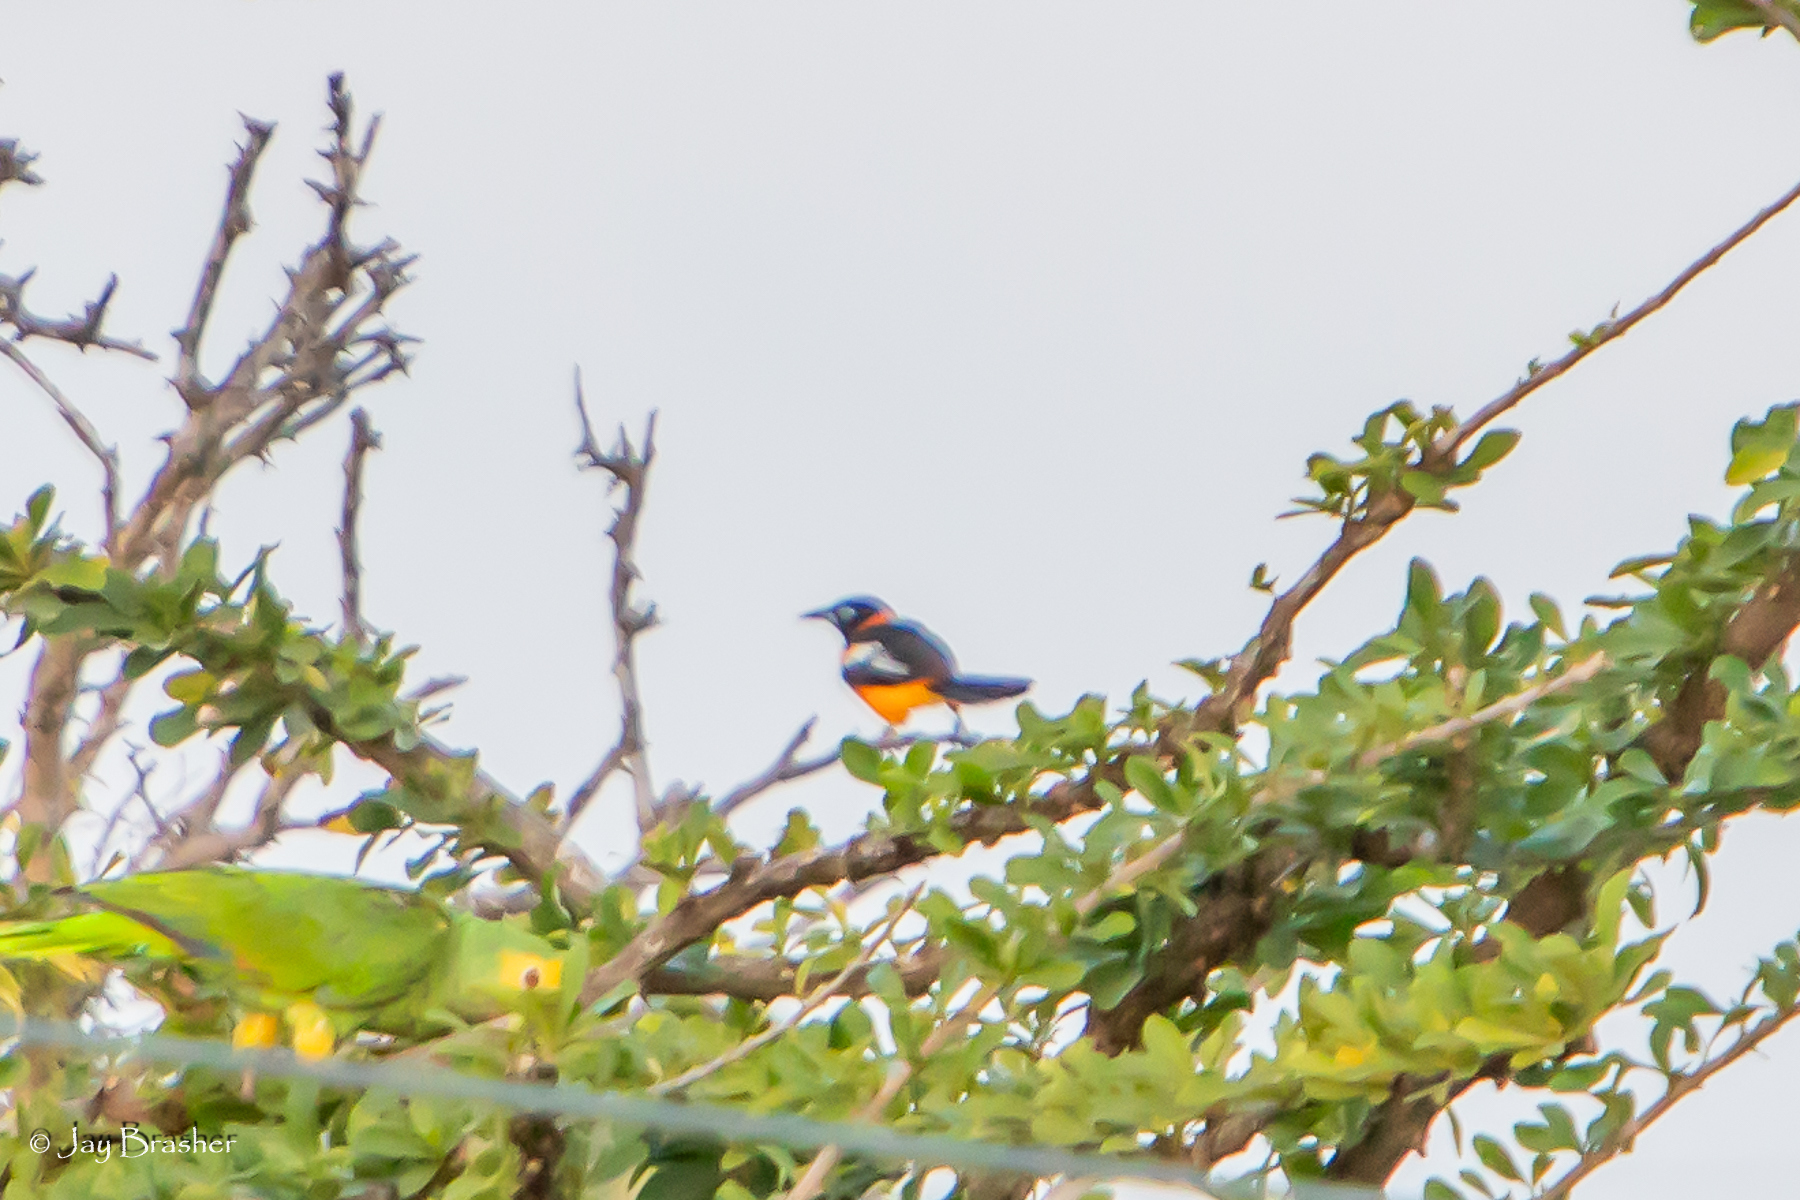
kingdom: Animalia
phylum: Chordata
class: Aves
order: Passeriformes
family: Icteridae
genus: Icterus
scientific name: Icterus icterus
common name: Venezuelan troupial
